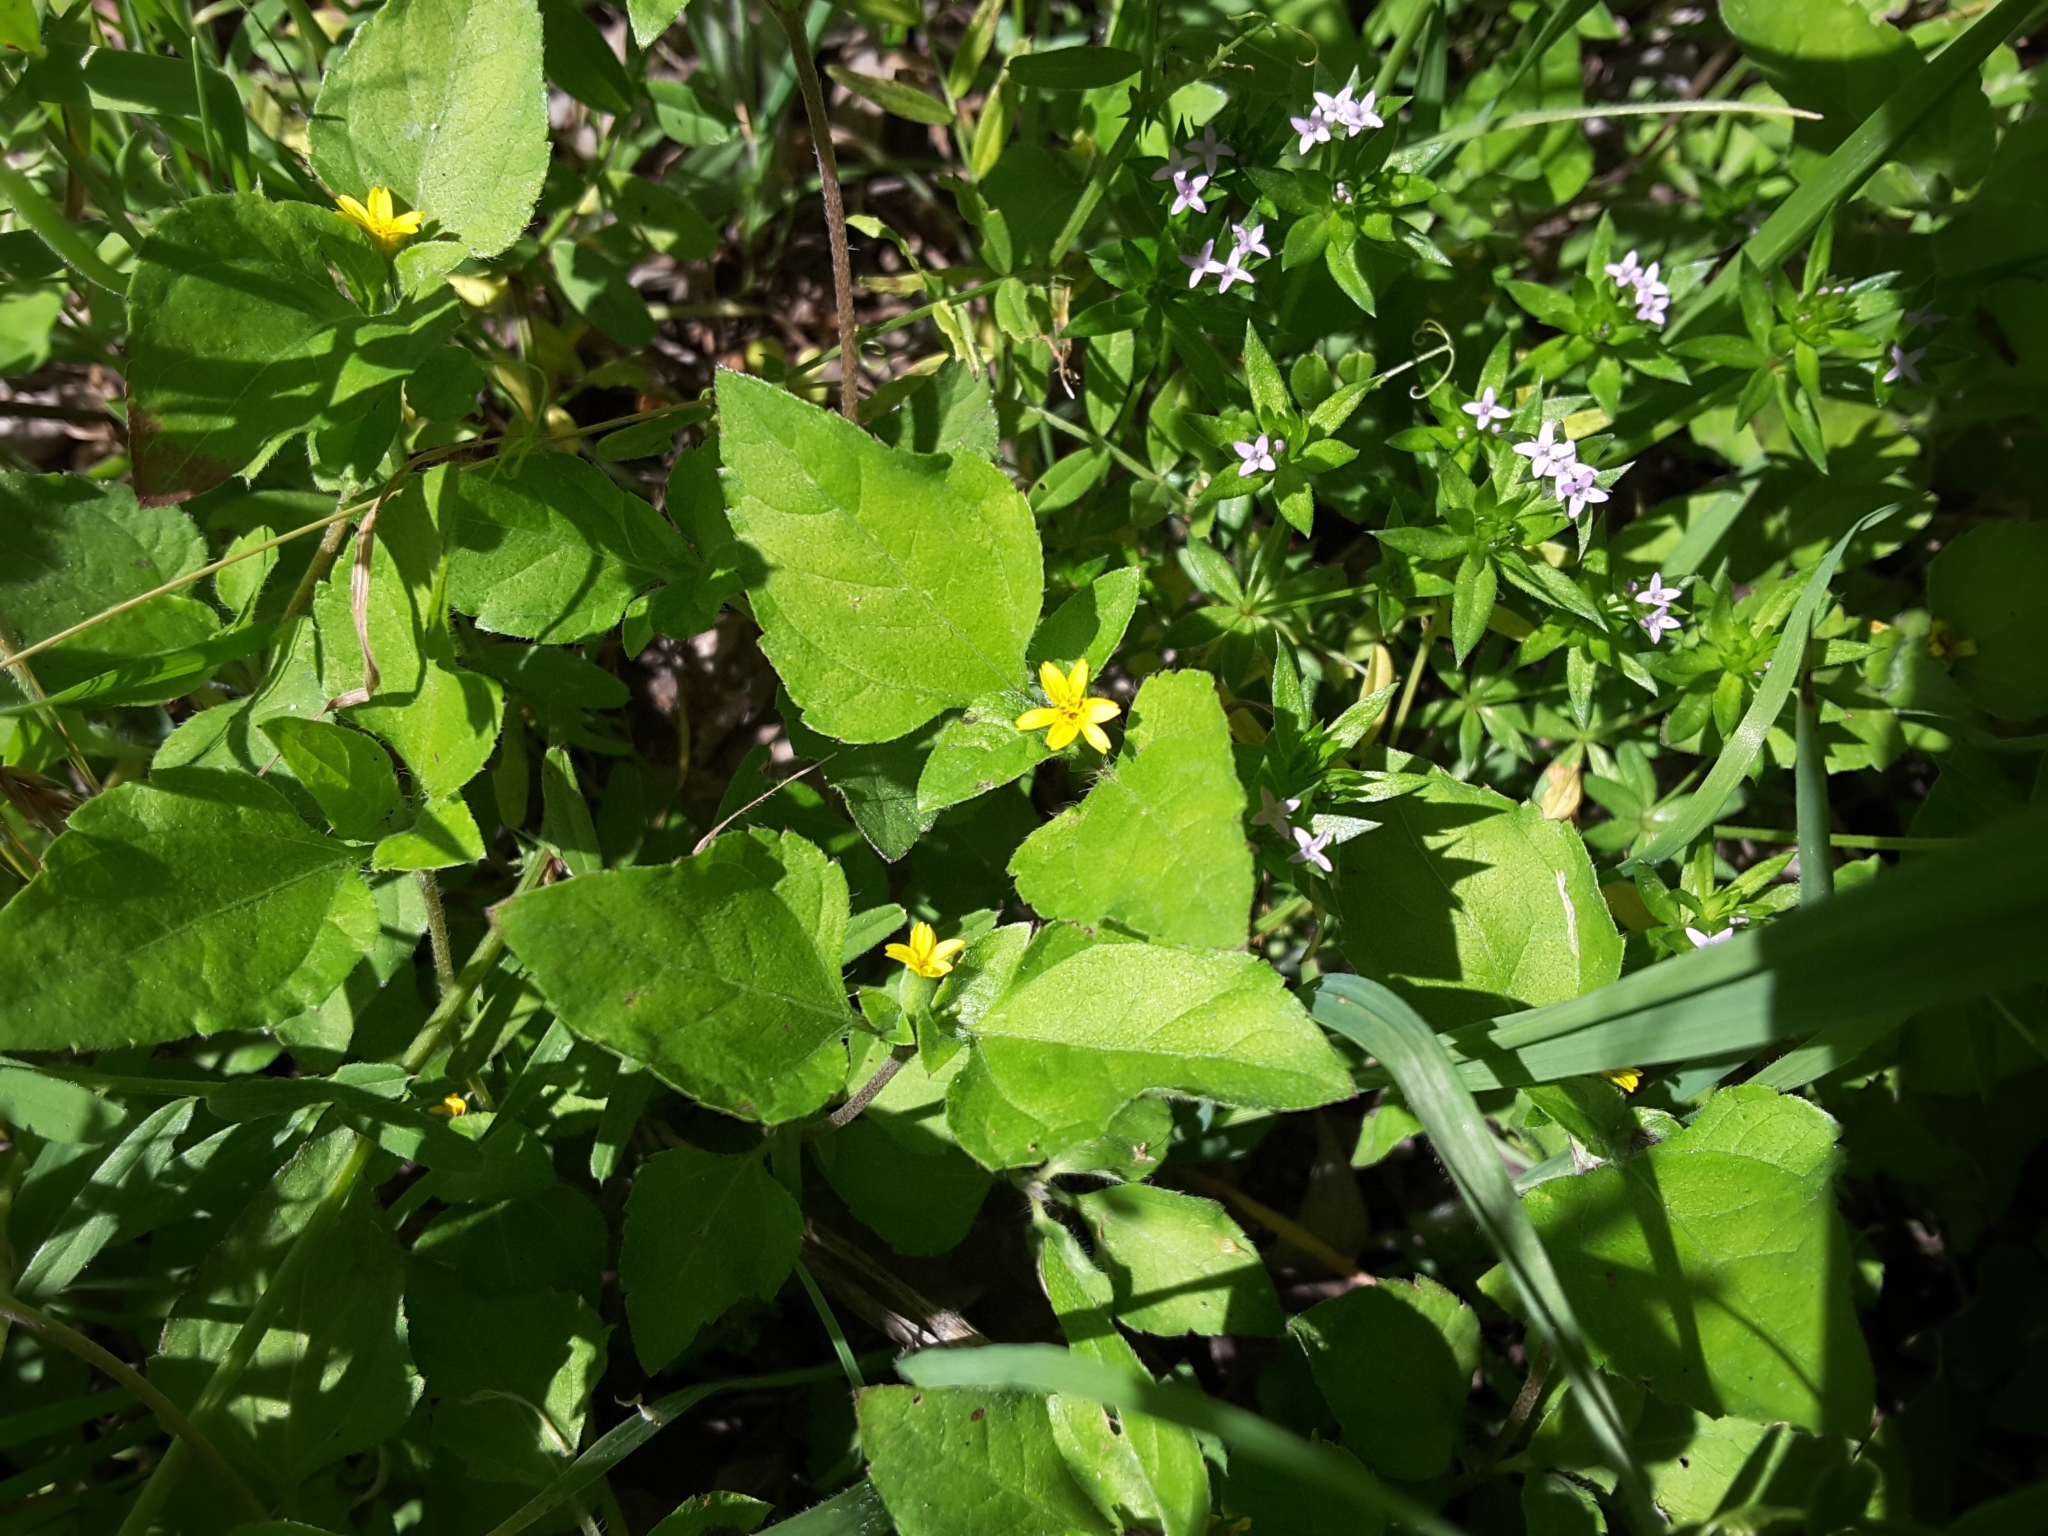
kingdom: Plantae
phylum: Tracheophyta
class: Magnoliopsida
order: Asterales
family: Asteraceae
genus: Calyptocarpus
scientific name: Calyptocarpus vialis
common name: Straggler daisy
